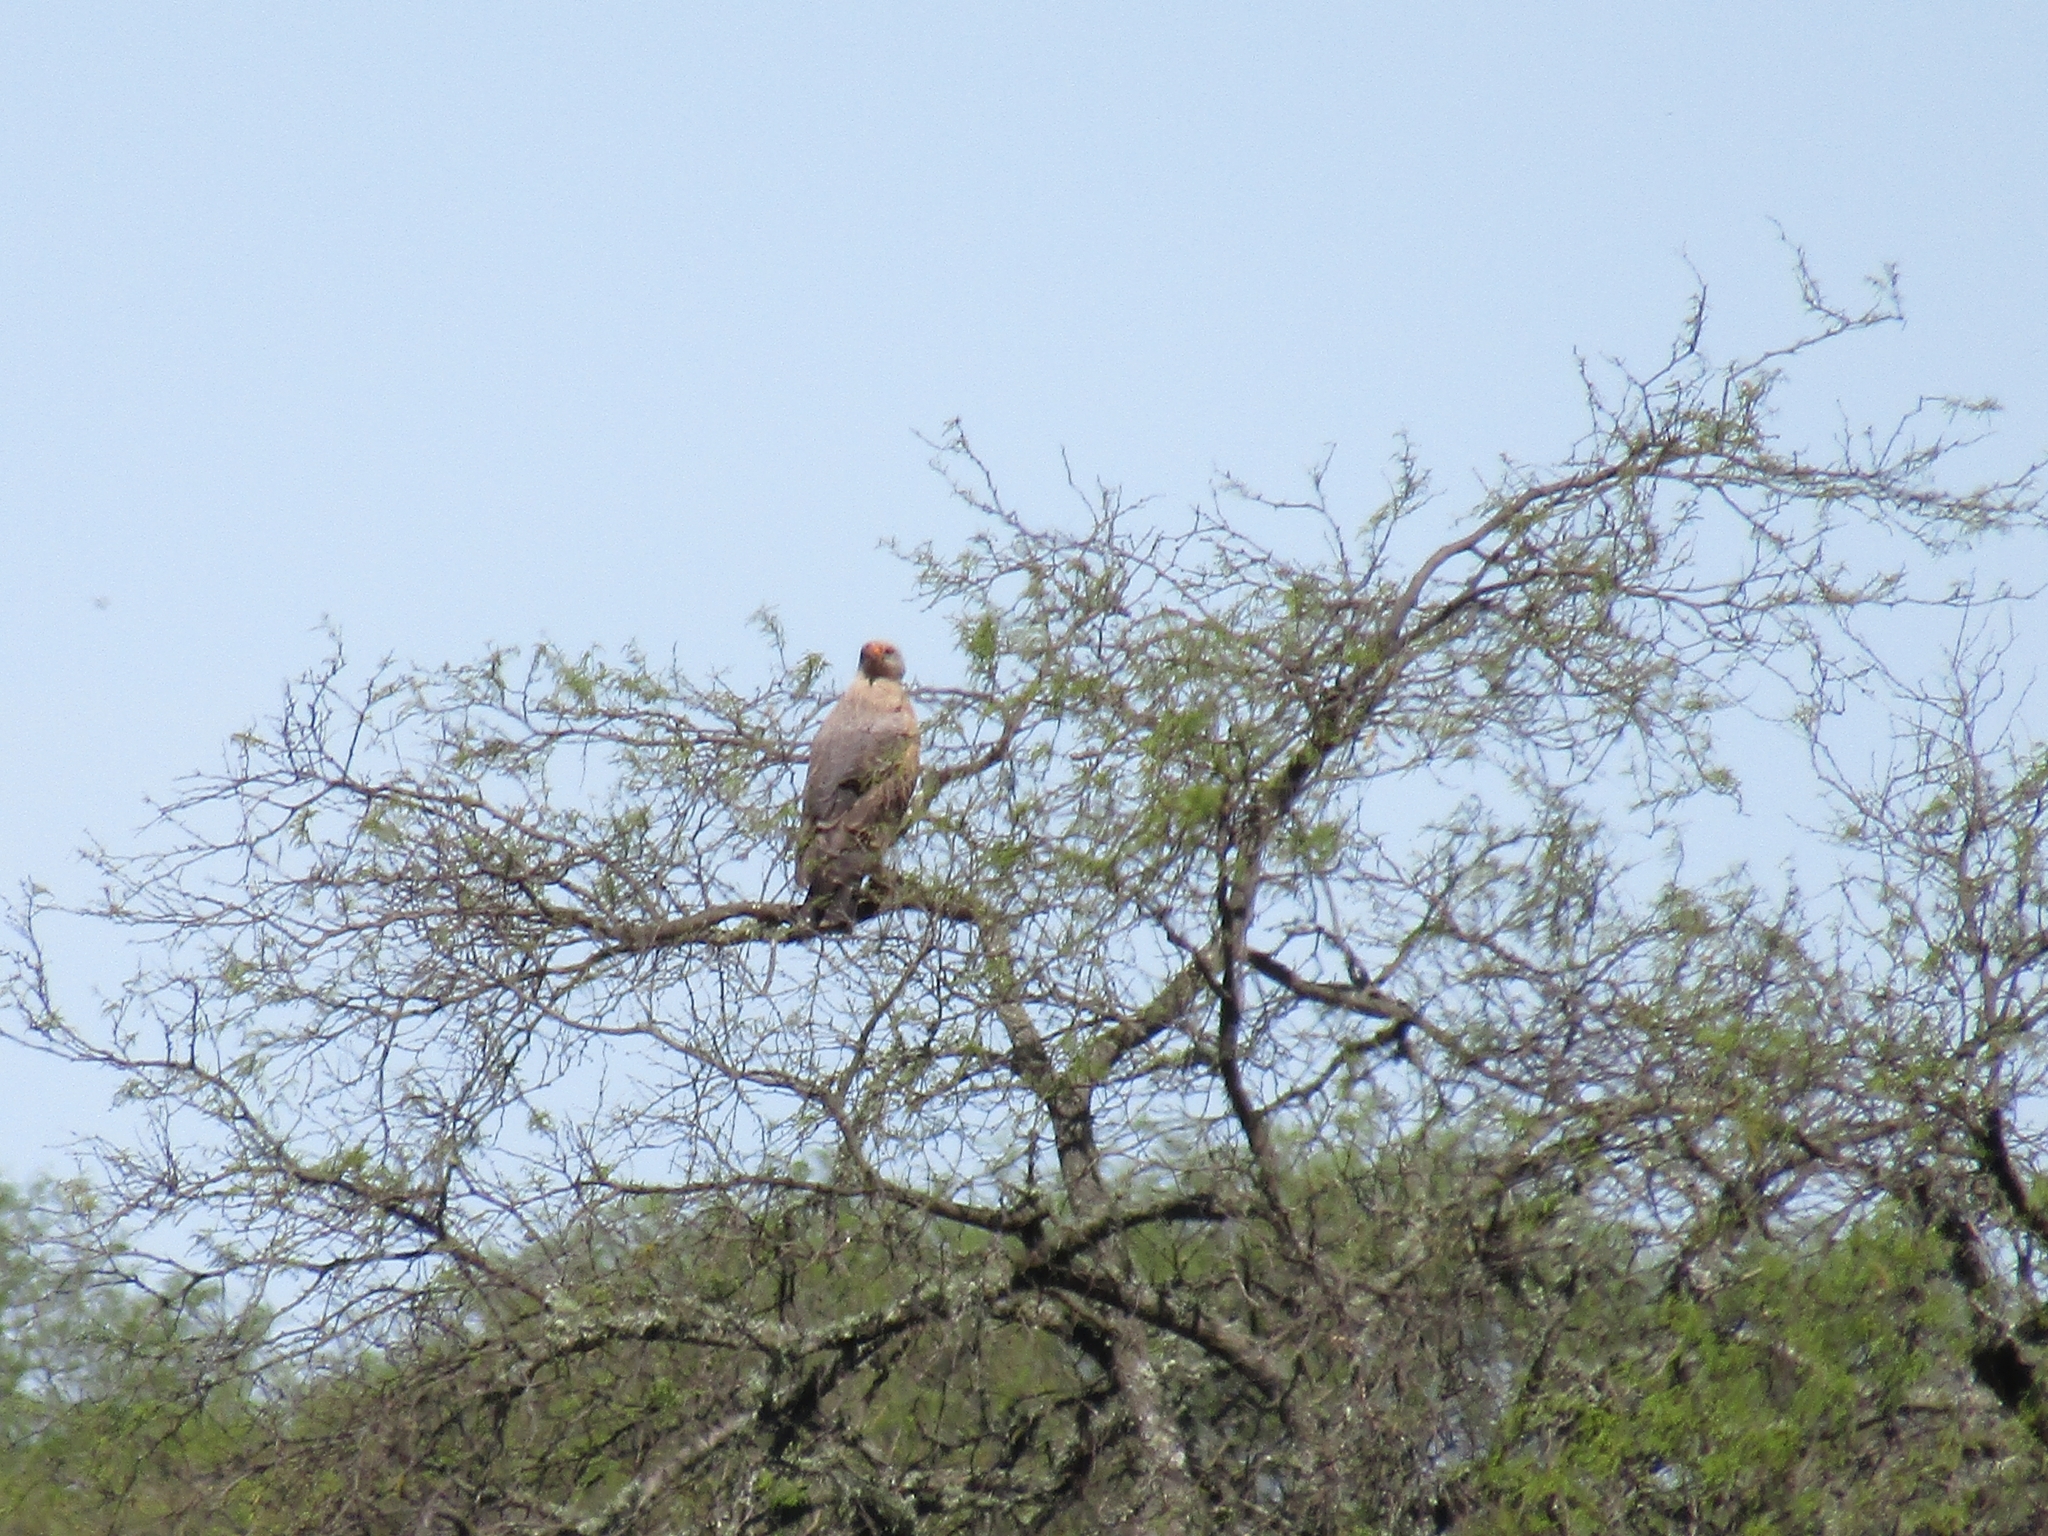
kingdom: Animalia
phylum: Chordata
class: Aves
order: Accipitriformes
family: Accipitridae
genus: Buteogallus
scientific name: Buteogallus meridionalis
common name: Savanna hawk
